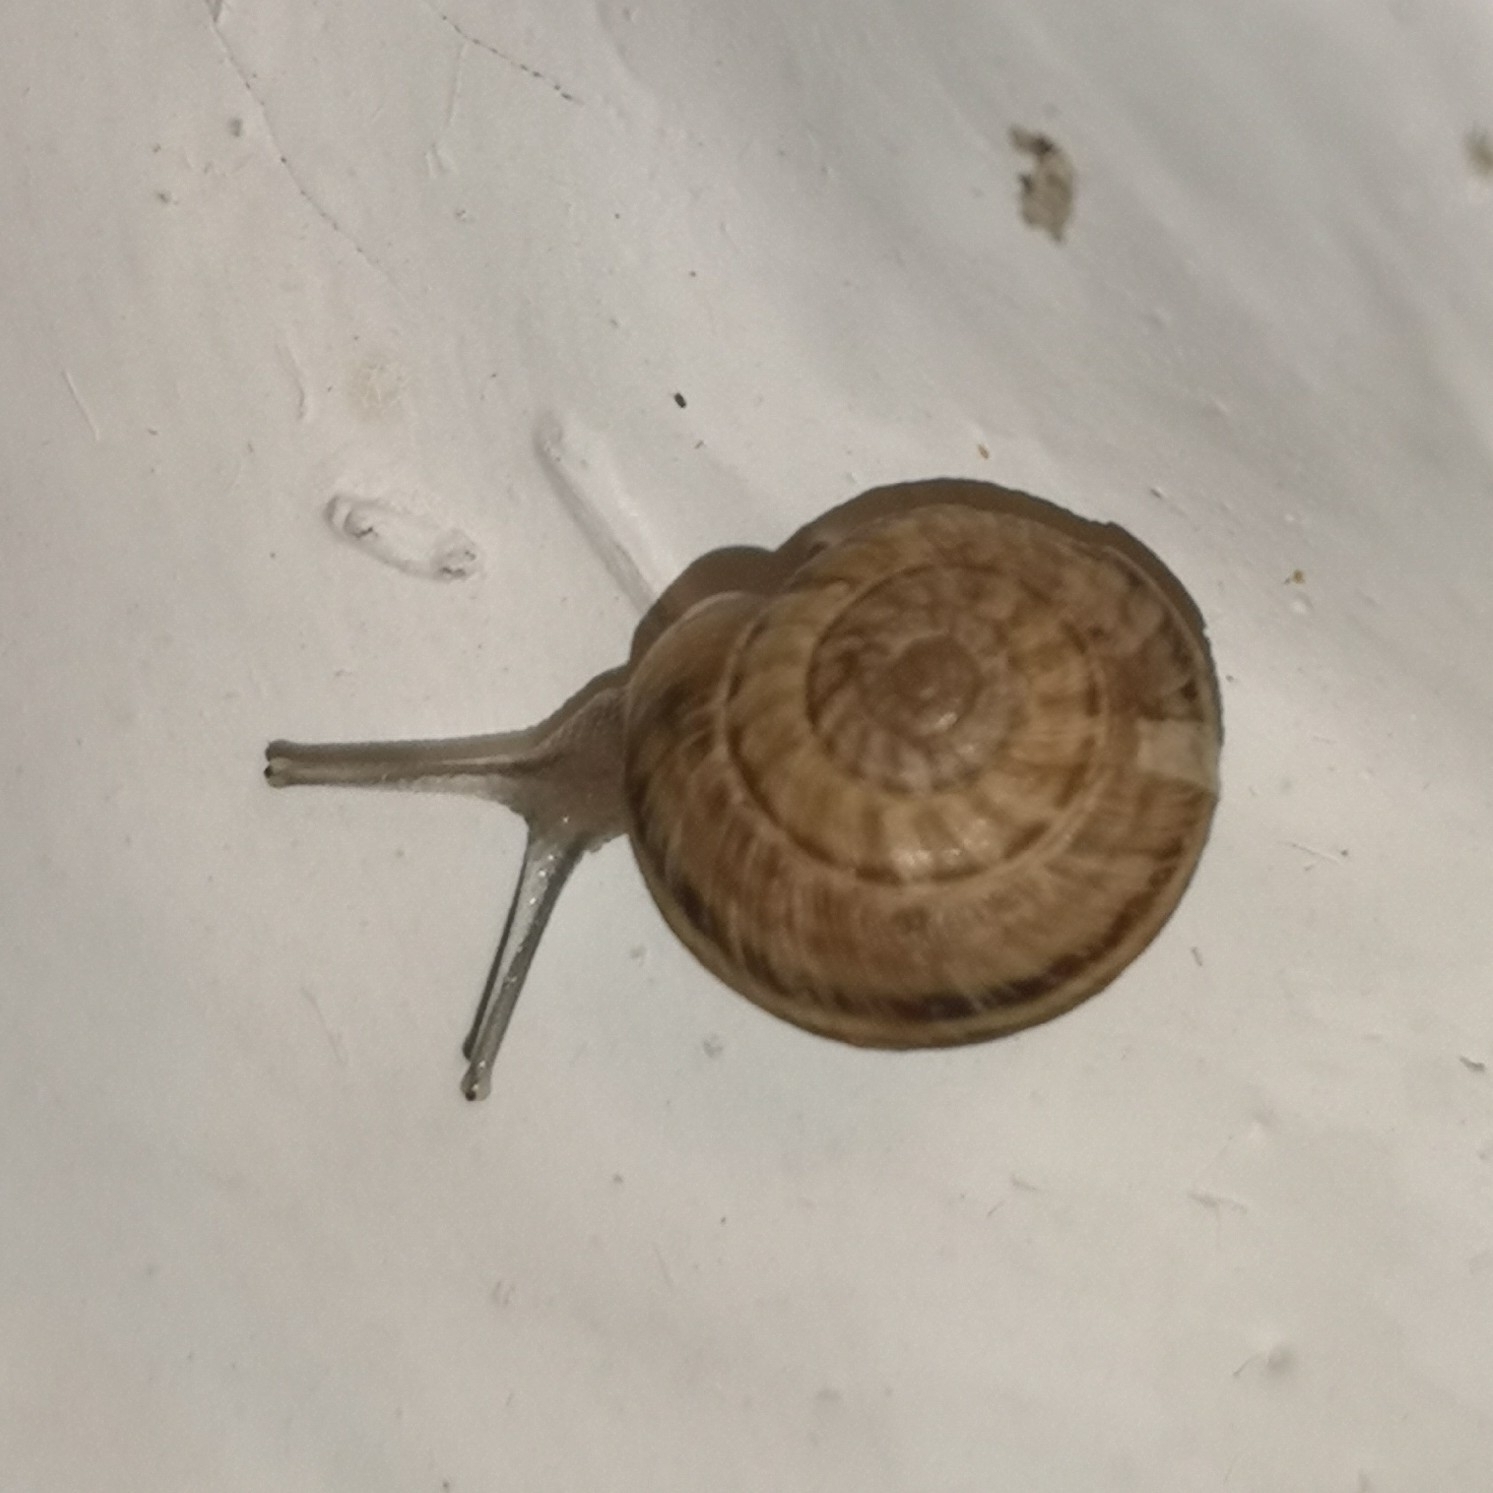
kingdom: Animalia
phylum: Mollusca
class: Gastropoda
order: Stylommatophora
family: Geomitridae
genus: Cernuella
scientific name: Cernuella virgata
